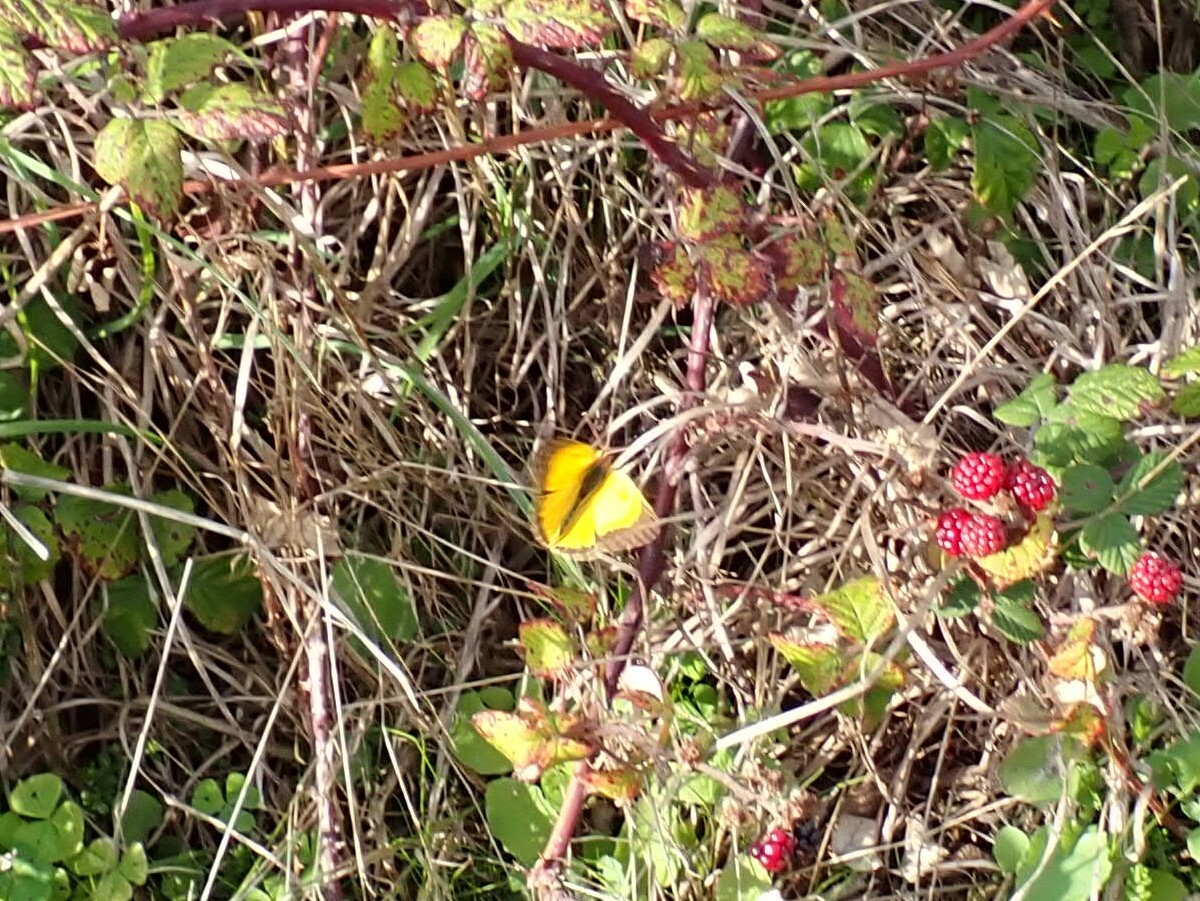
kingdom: Animalia
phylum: Arthropoda
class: Insecta
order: Lepidoptera
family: Pieridae
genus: Colias
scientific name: Colias croceus
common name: Clouded yellow
